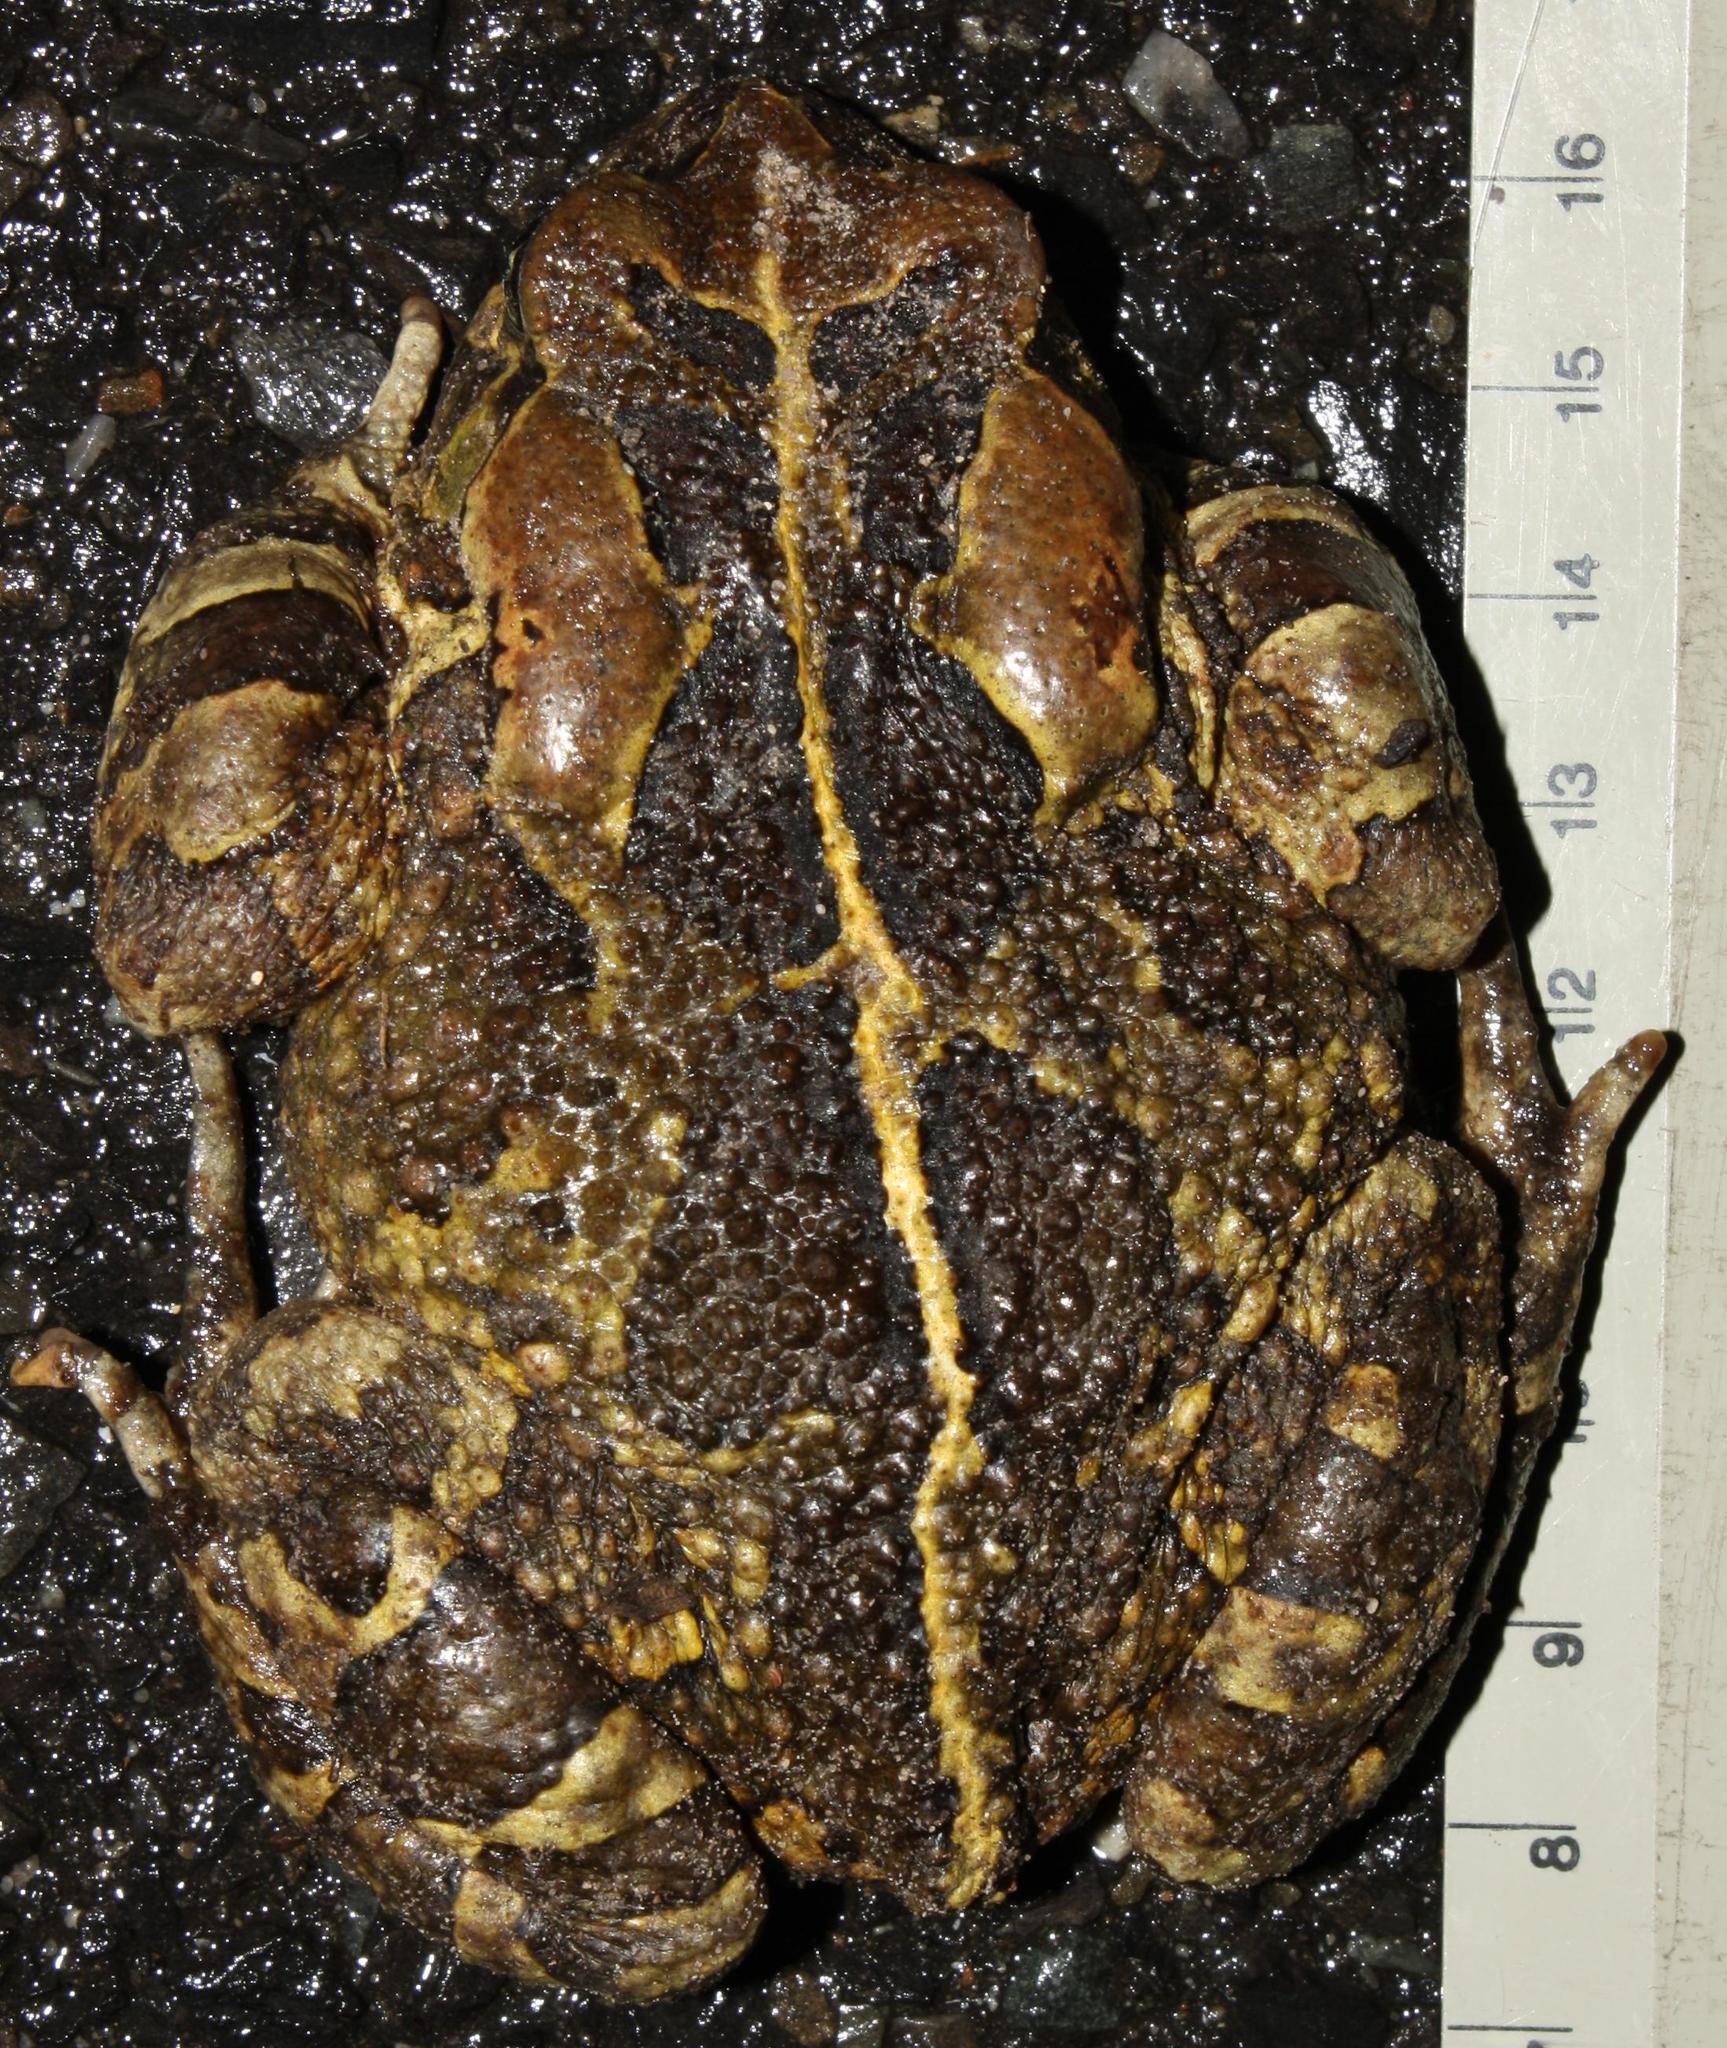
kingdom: Animalia
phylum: Chordata
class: Amphibia
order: Anura
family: Bufonidae
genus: Sclerophrys
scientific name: Sclerophrys pantherina
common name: Panther toad
